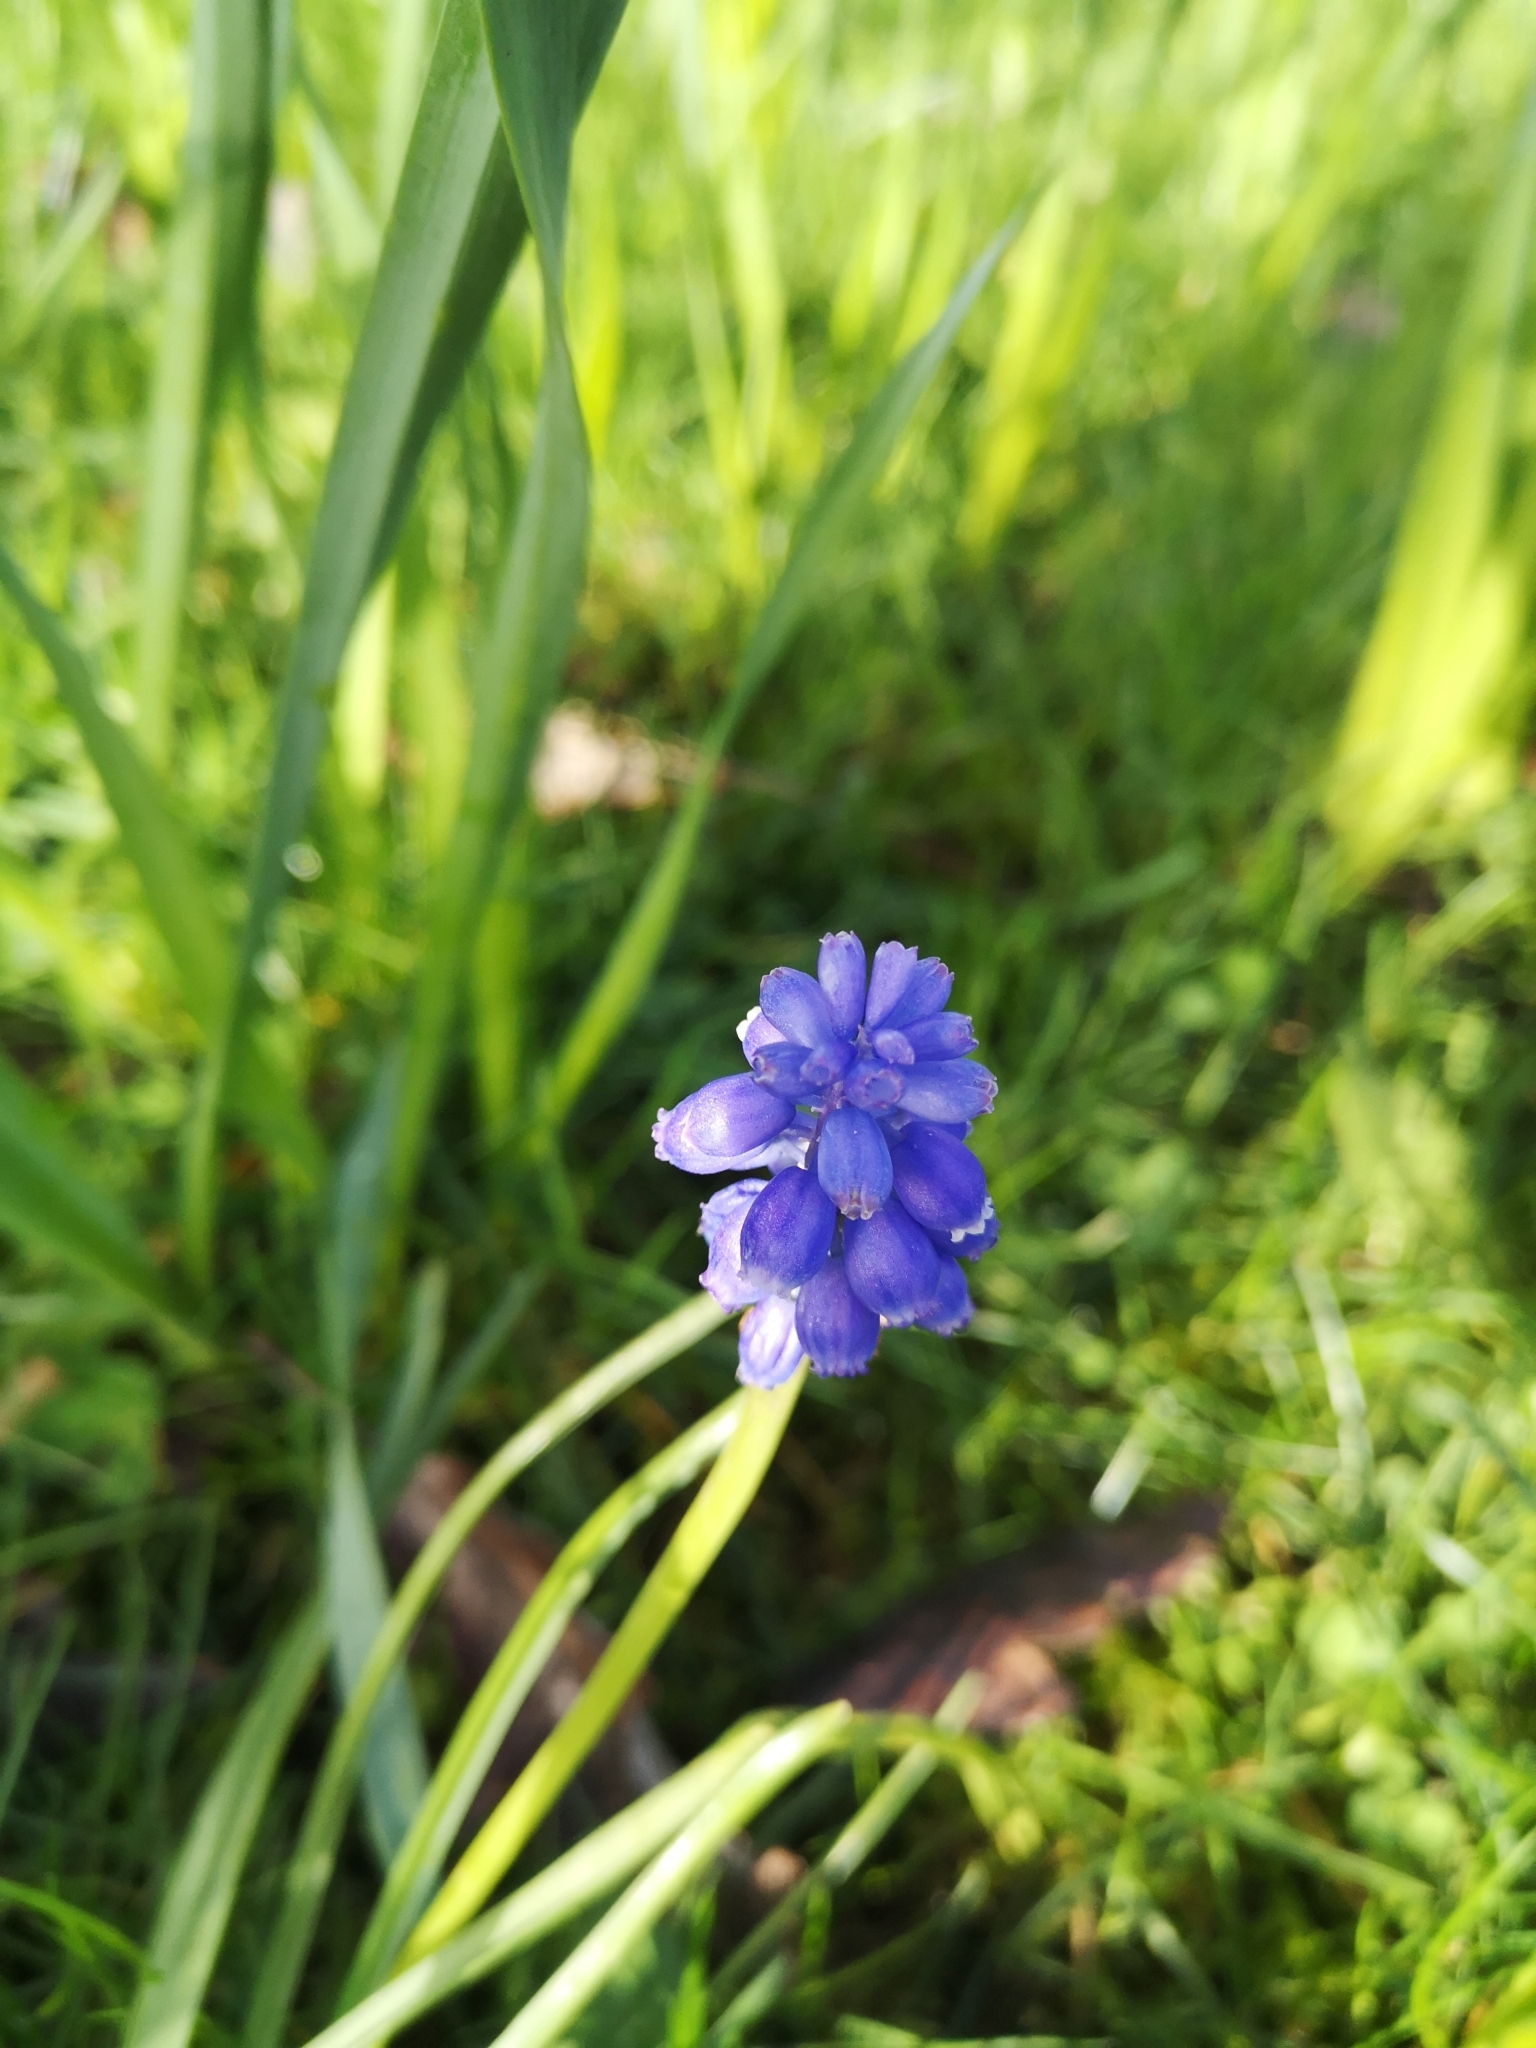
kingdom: Plantae
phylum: Tracheophyta
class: Liliopsida
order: Asparagales
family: Asparagaceae
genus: Muscari
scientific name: Muscari armeniacum
